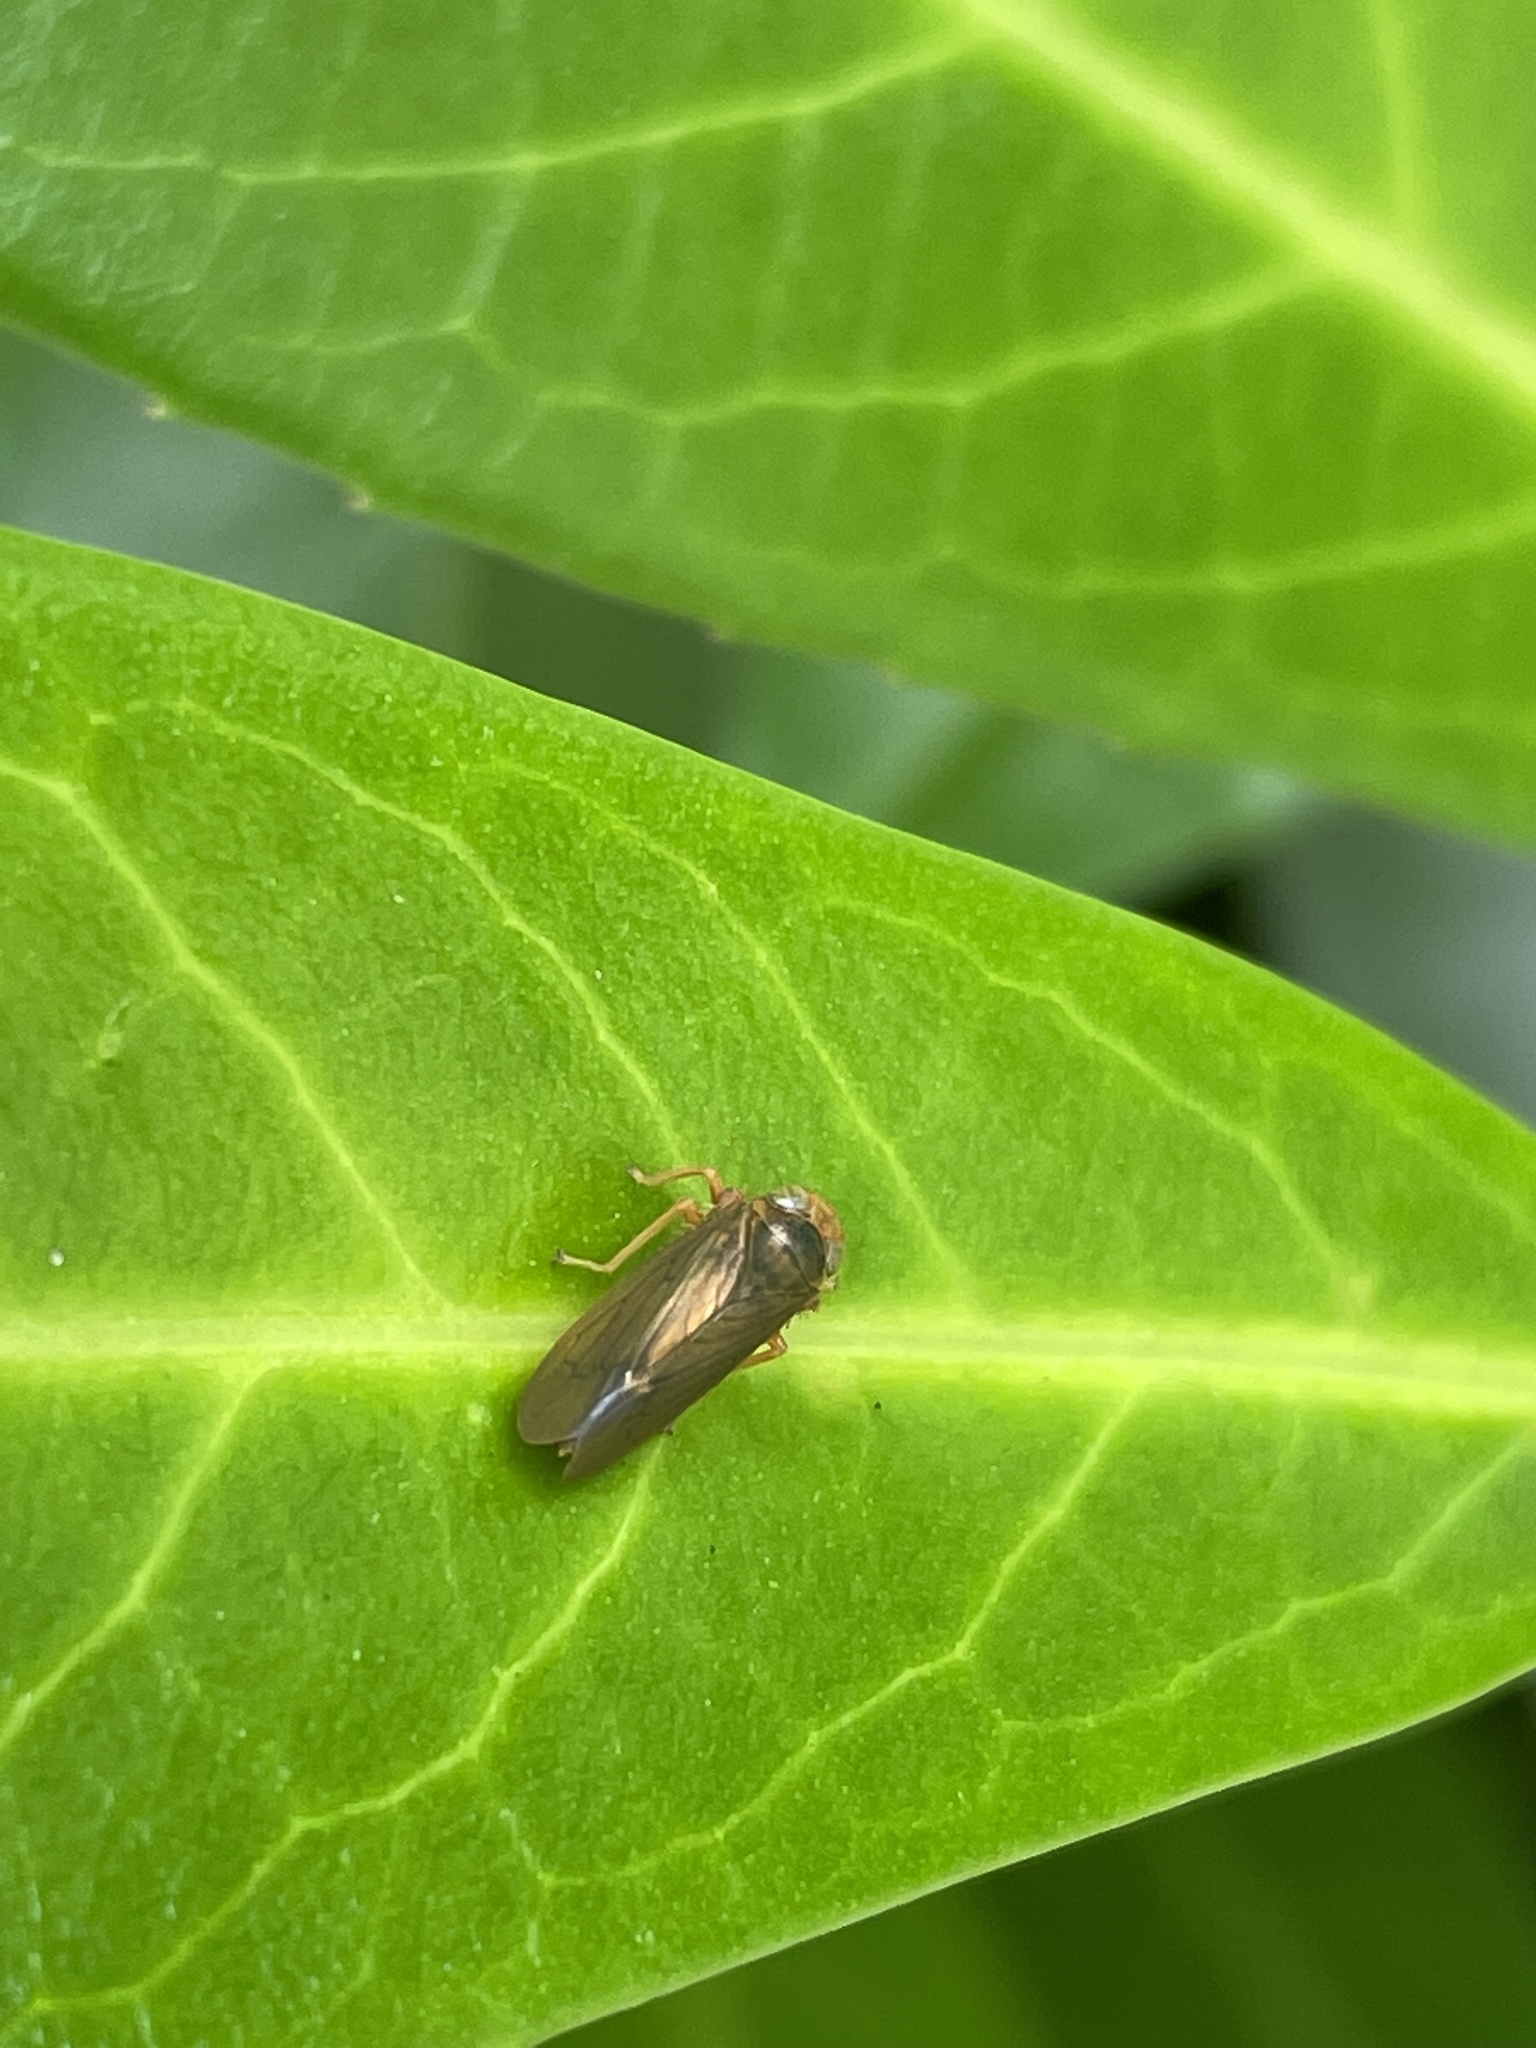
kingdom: Animalia
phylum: Arthropoda
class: Insecta
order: Hemiptera
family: Cicadellidae
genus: Jikradia
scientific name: Jikradia olitoria
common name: Coppery leafhopper
